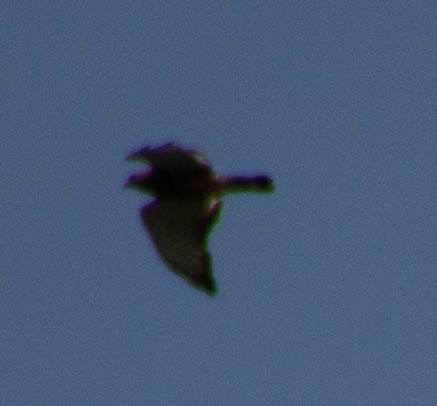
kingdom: Animalia
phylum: Chordata
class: Aves
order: Accipitriformes
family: Accipitridae
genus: Buteo
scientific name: Buteo platypterus
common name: Broad-winged hawk
